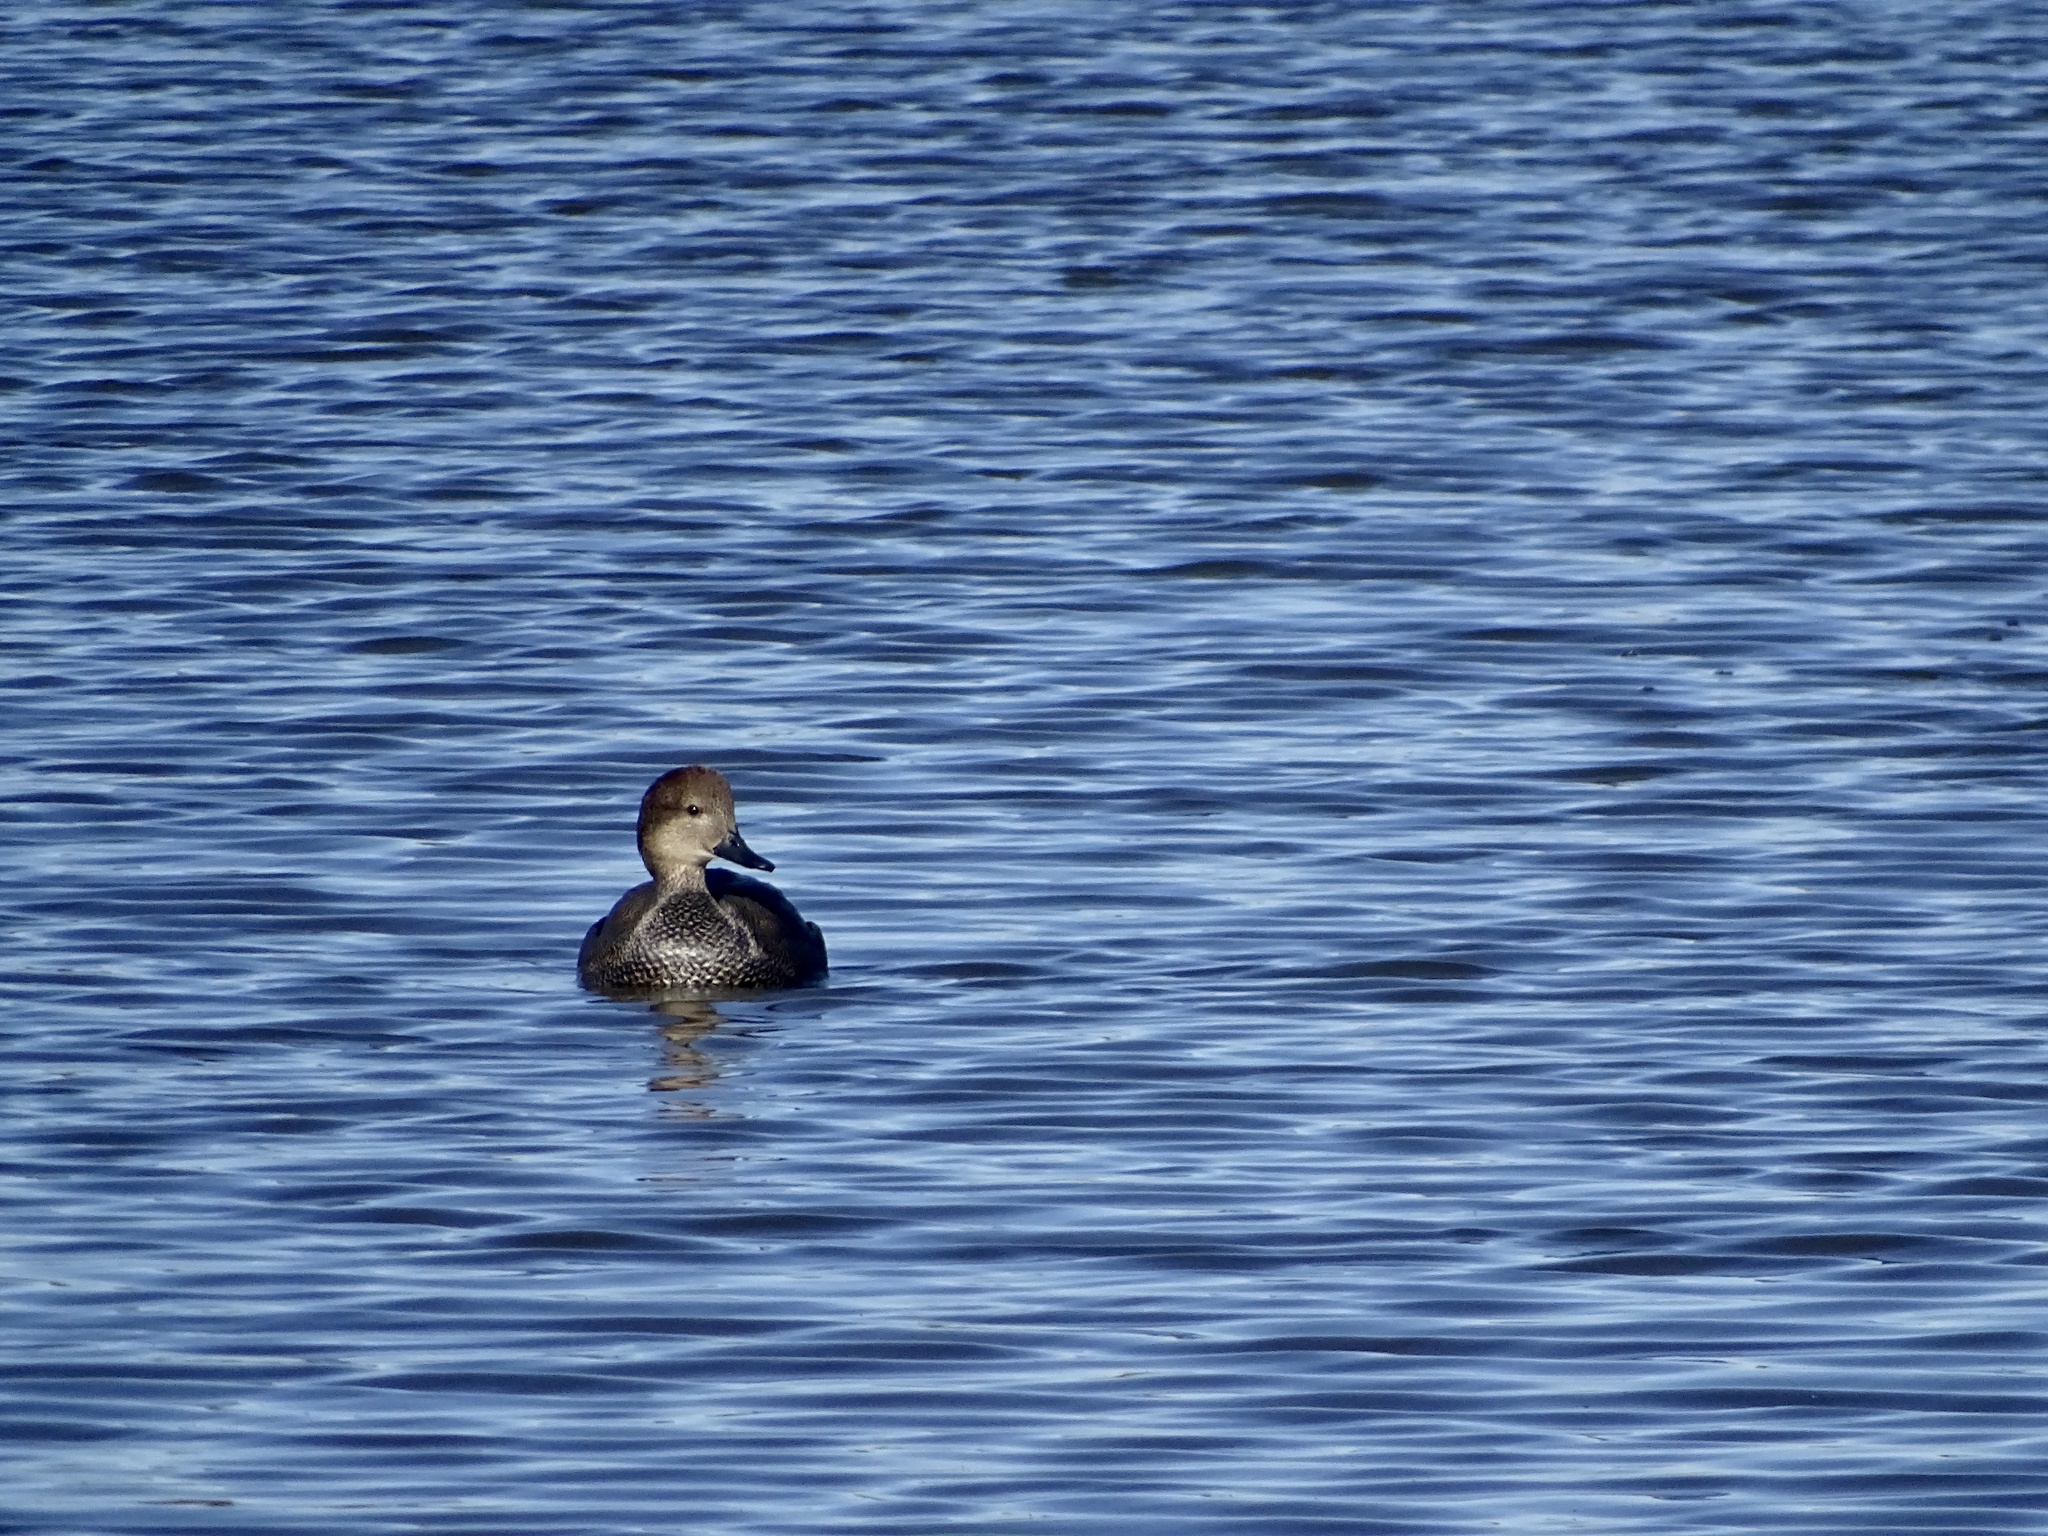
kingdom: Animalia
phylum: Chordata
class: Aves
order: Anseriformes
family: Anatidae
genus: Mareca
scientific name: Mareca strepera
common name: Gadwall
